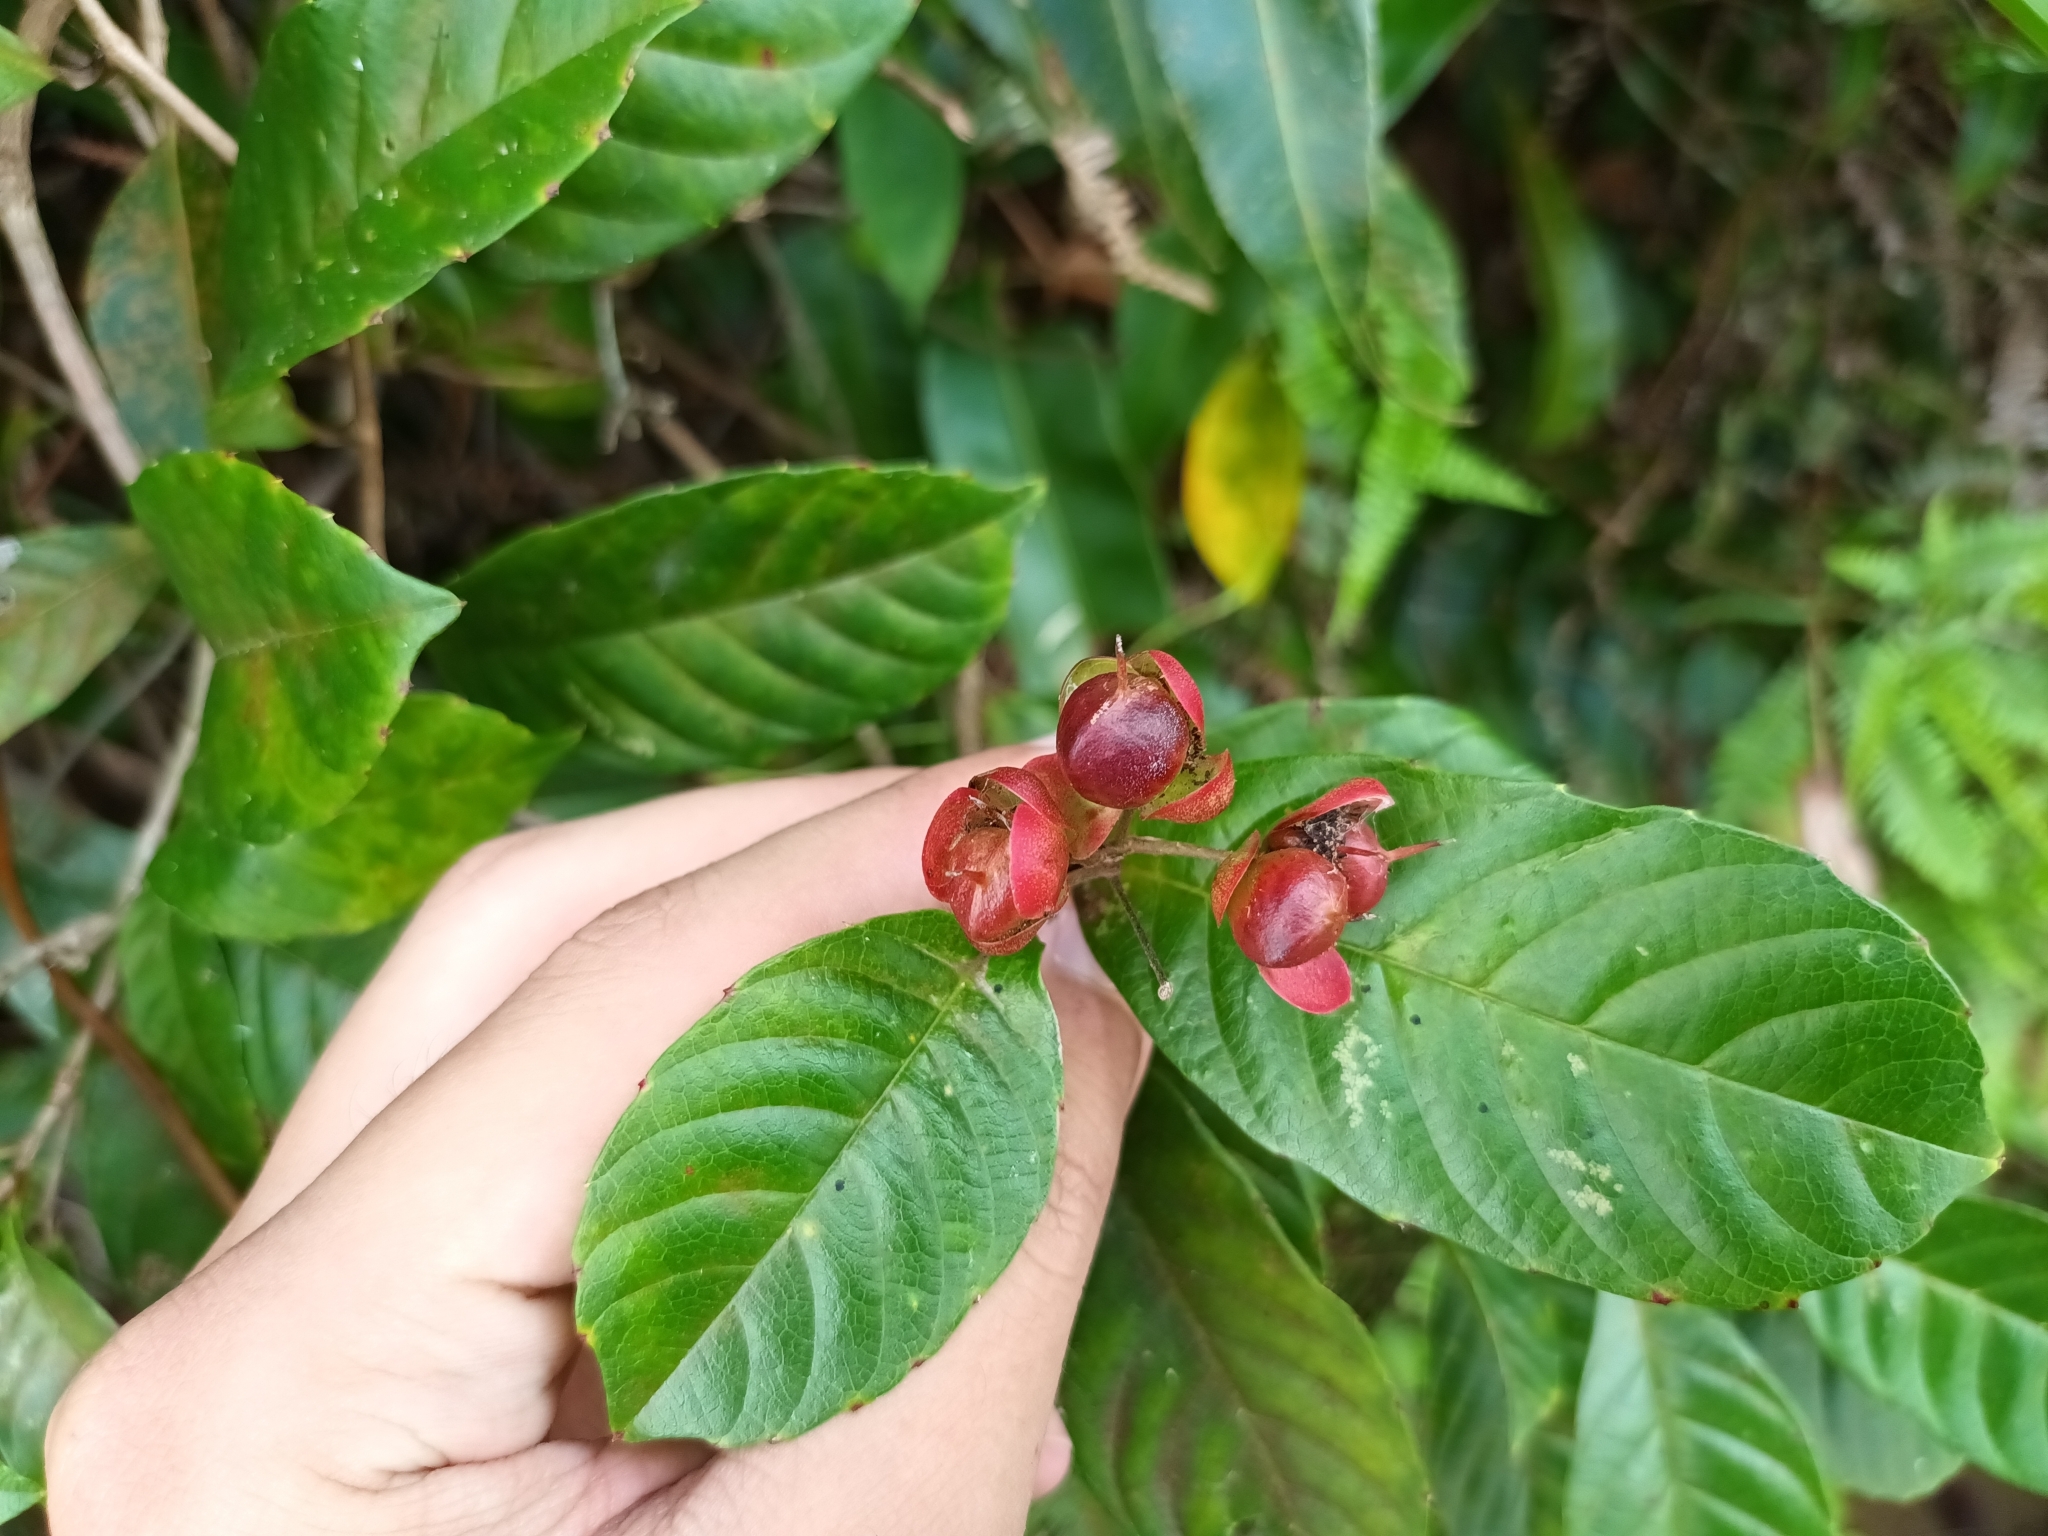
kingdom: Plantae
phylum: Tracheophyta
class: Magnoliopsida
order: Dilleniales
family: Dilleniaceae
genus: Tetracera
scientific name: Tetracera indica
